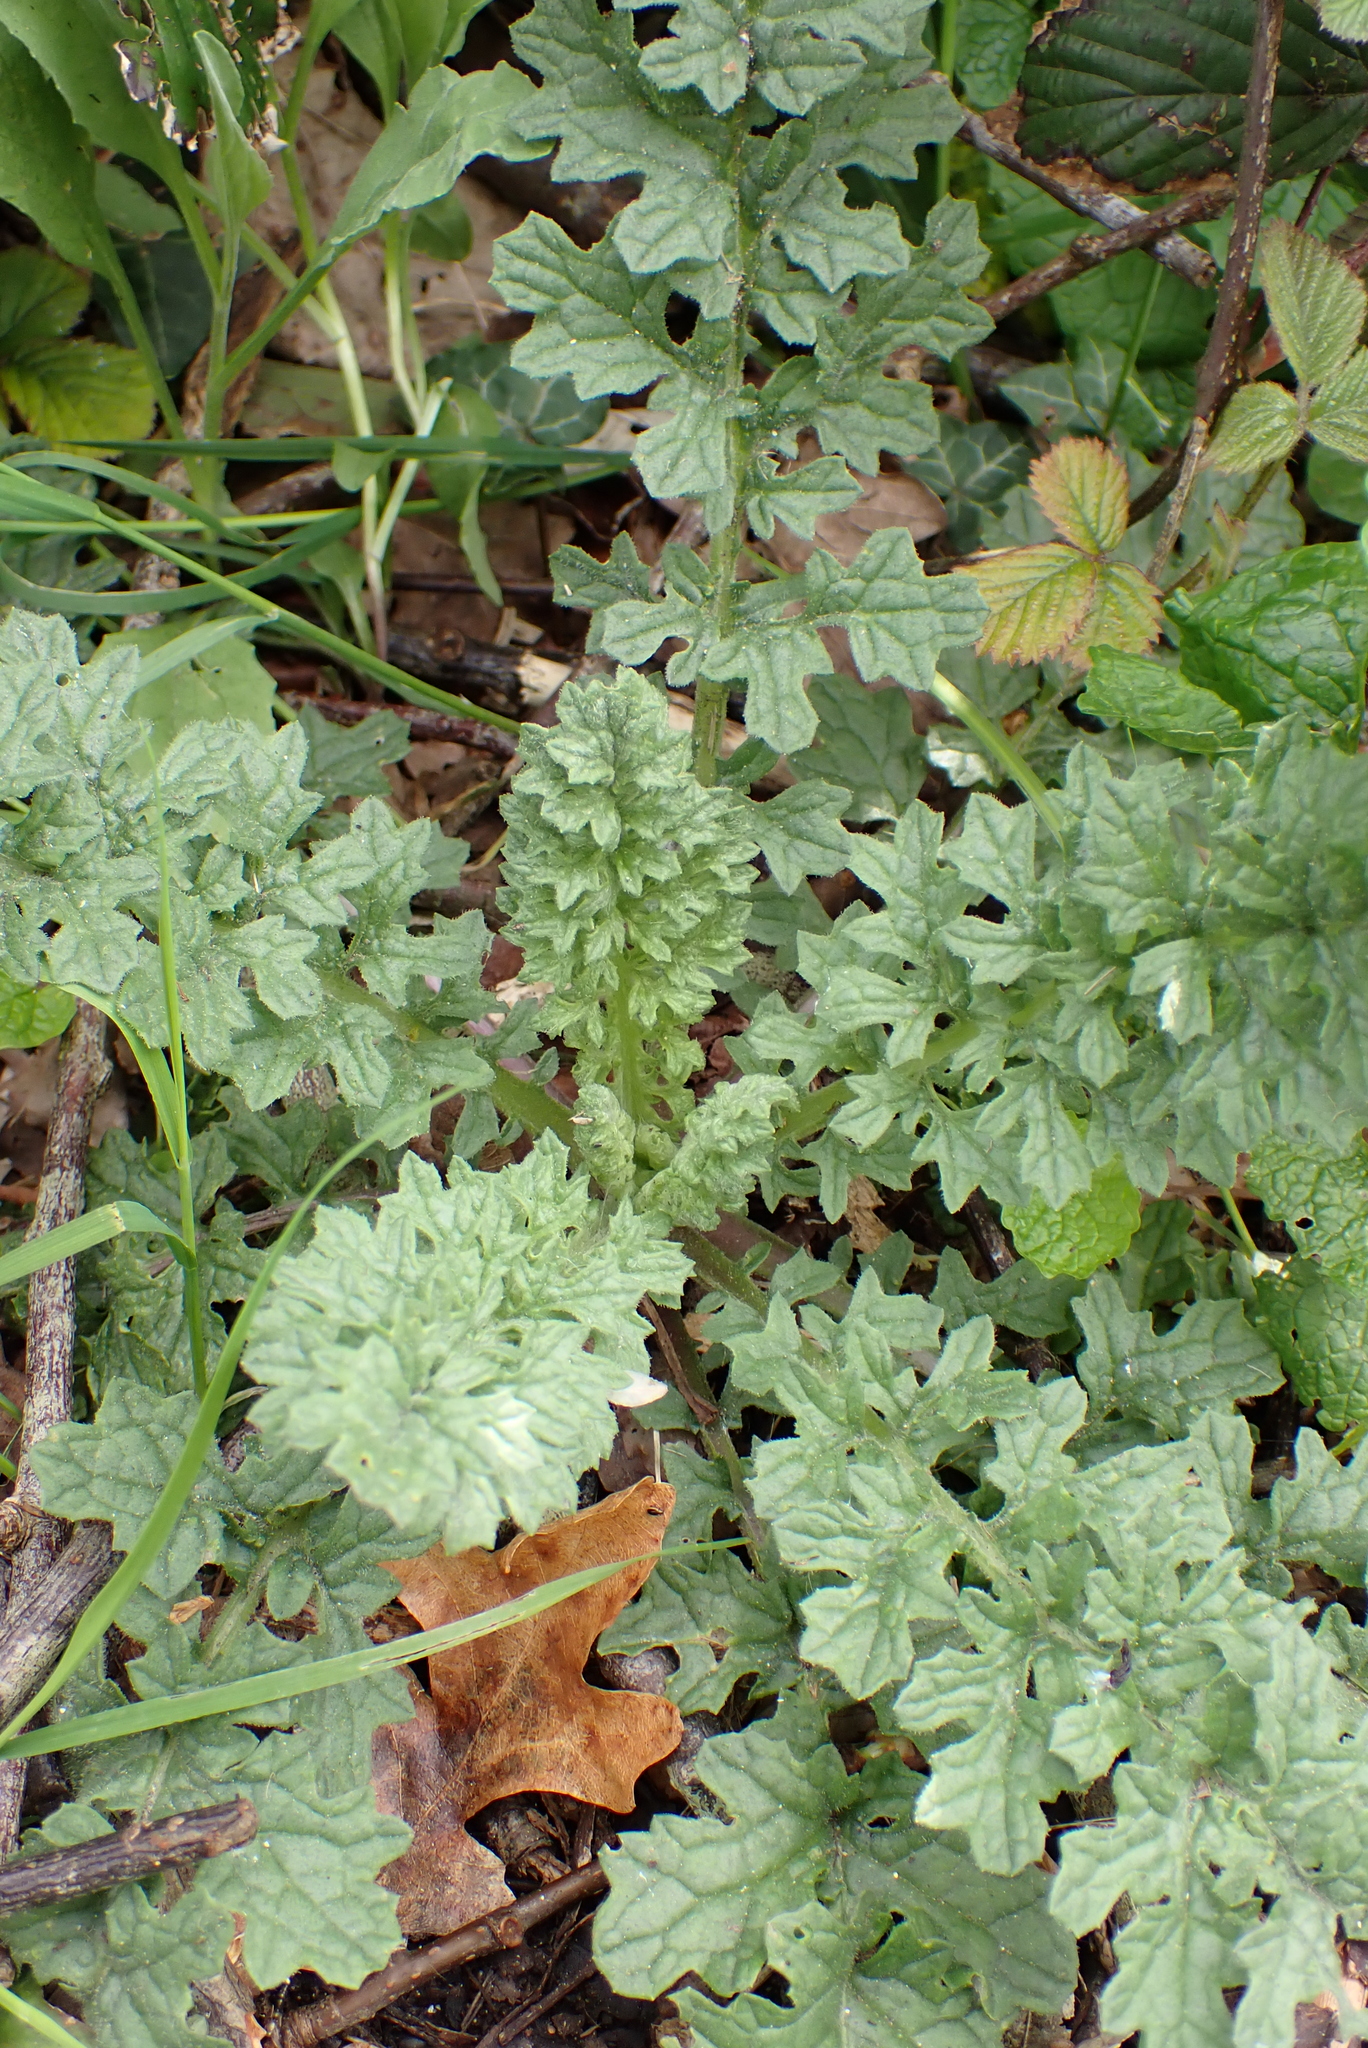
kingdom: Plantae
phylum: Tracheophyta
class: Magnoliopsida
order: Asterales
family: Asteraceae
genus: Jacobaea
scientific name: Jacobaea vulgaris
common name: Stinking willie
